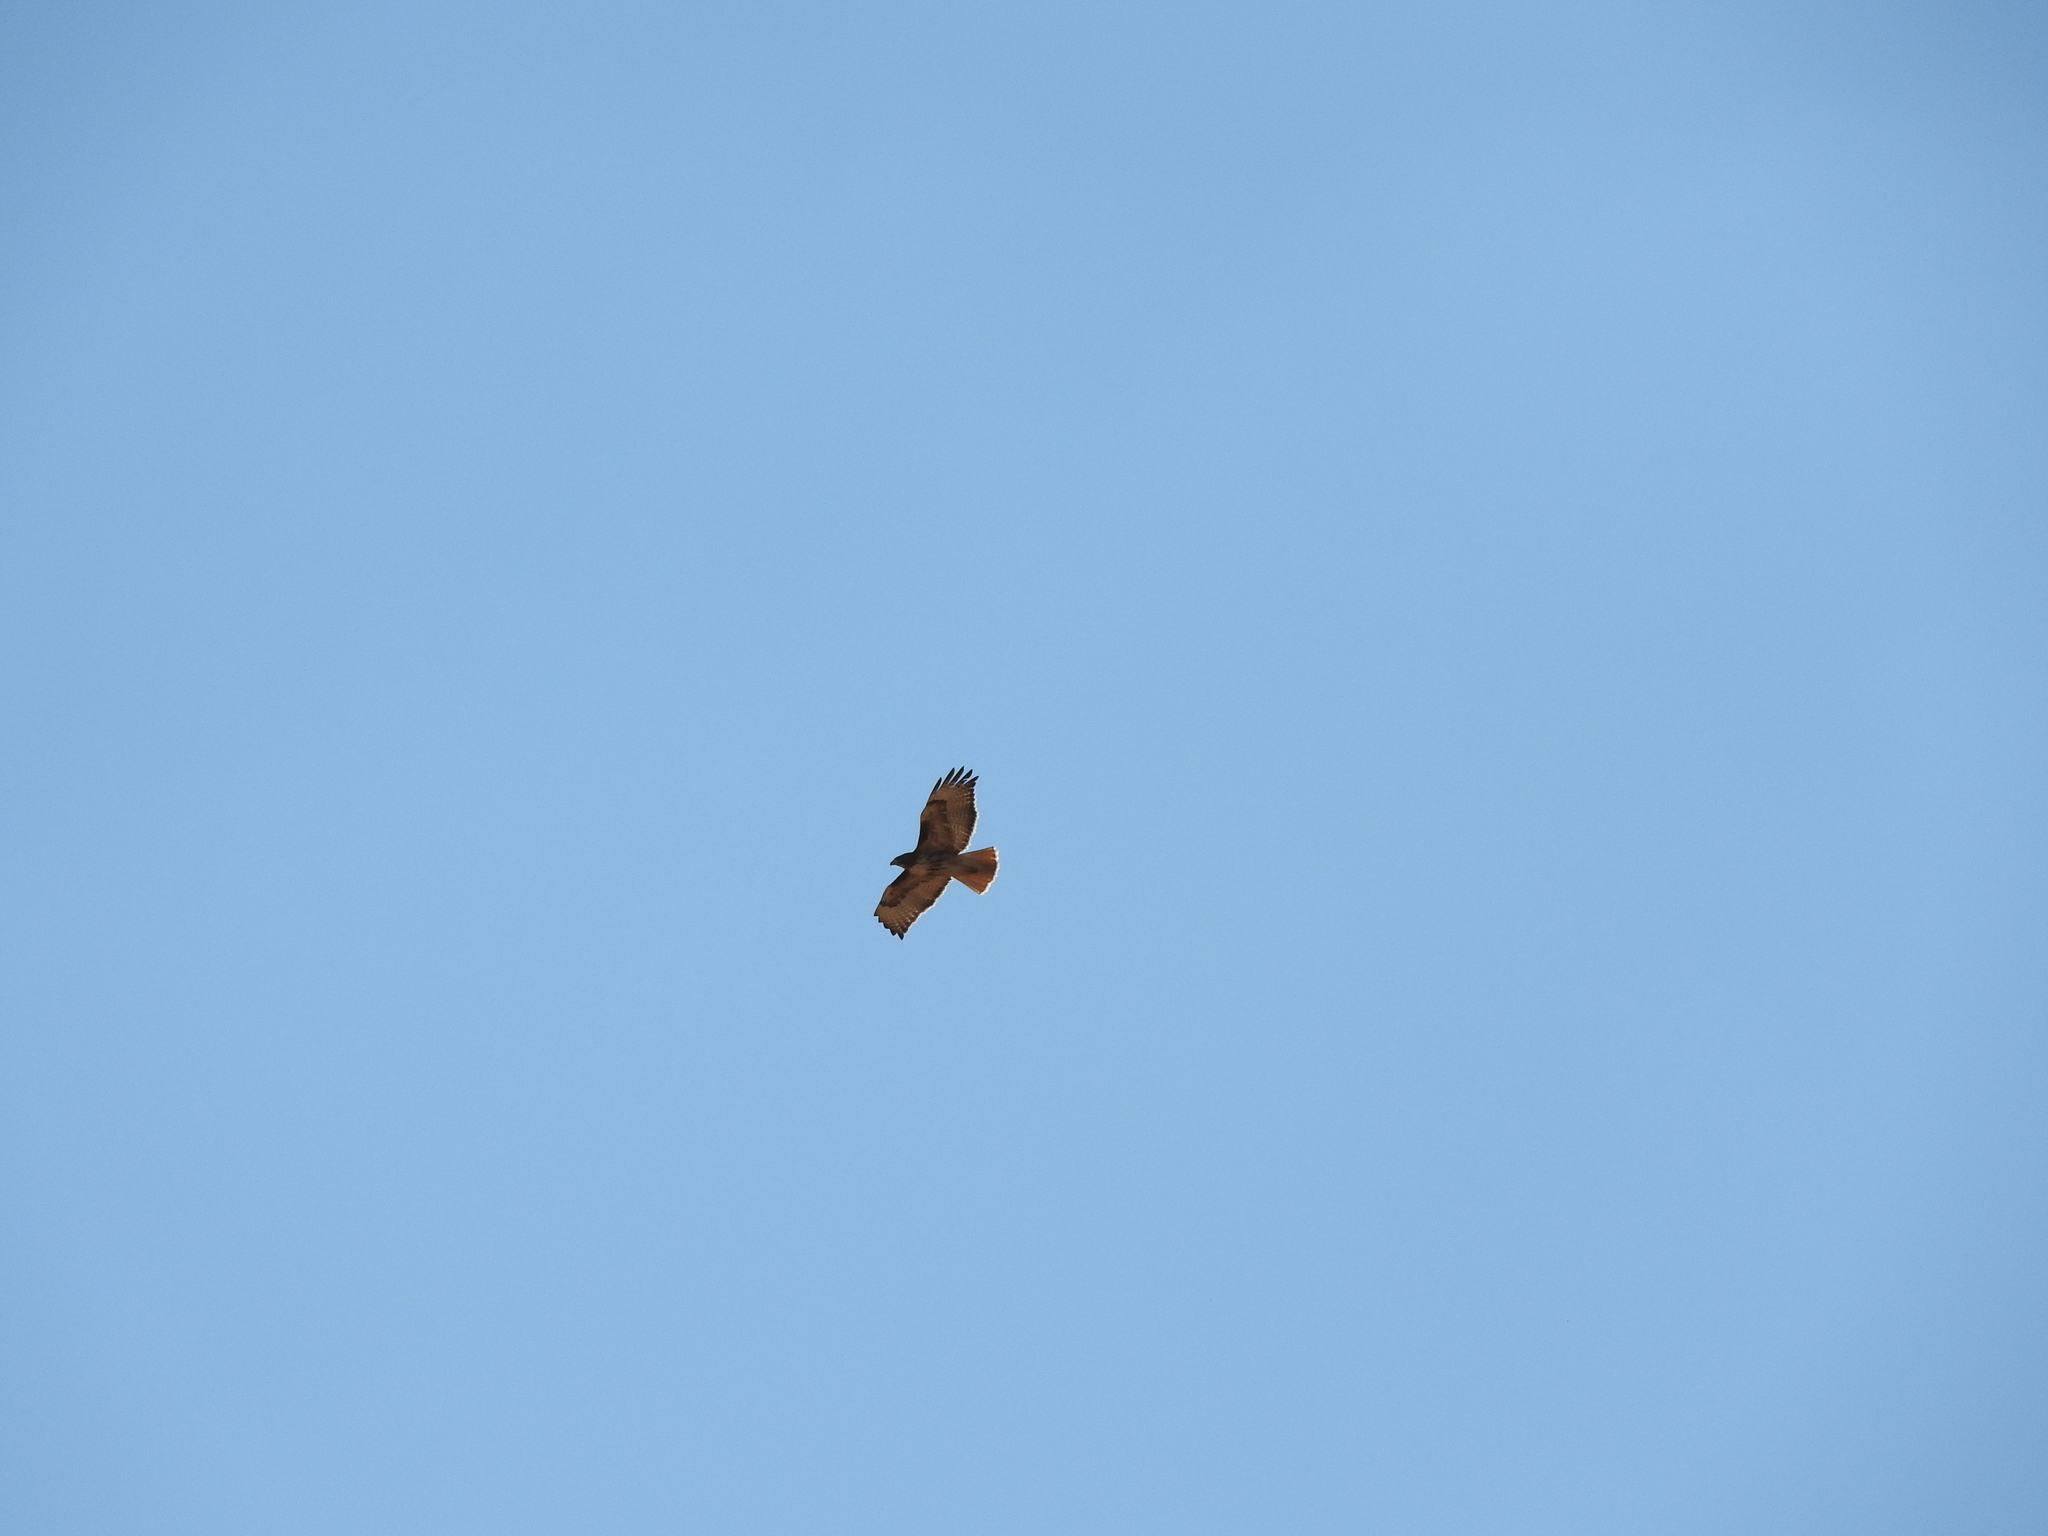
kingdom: Animalia
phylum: Chordata
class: Aves
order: Accipitriformes
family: Accipitridae
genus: Buteo
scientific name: Buteo jamaicensis
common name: Red-tailed hawk
